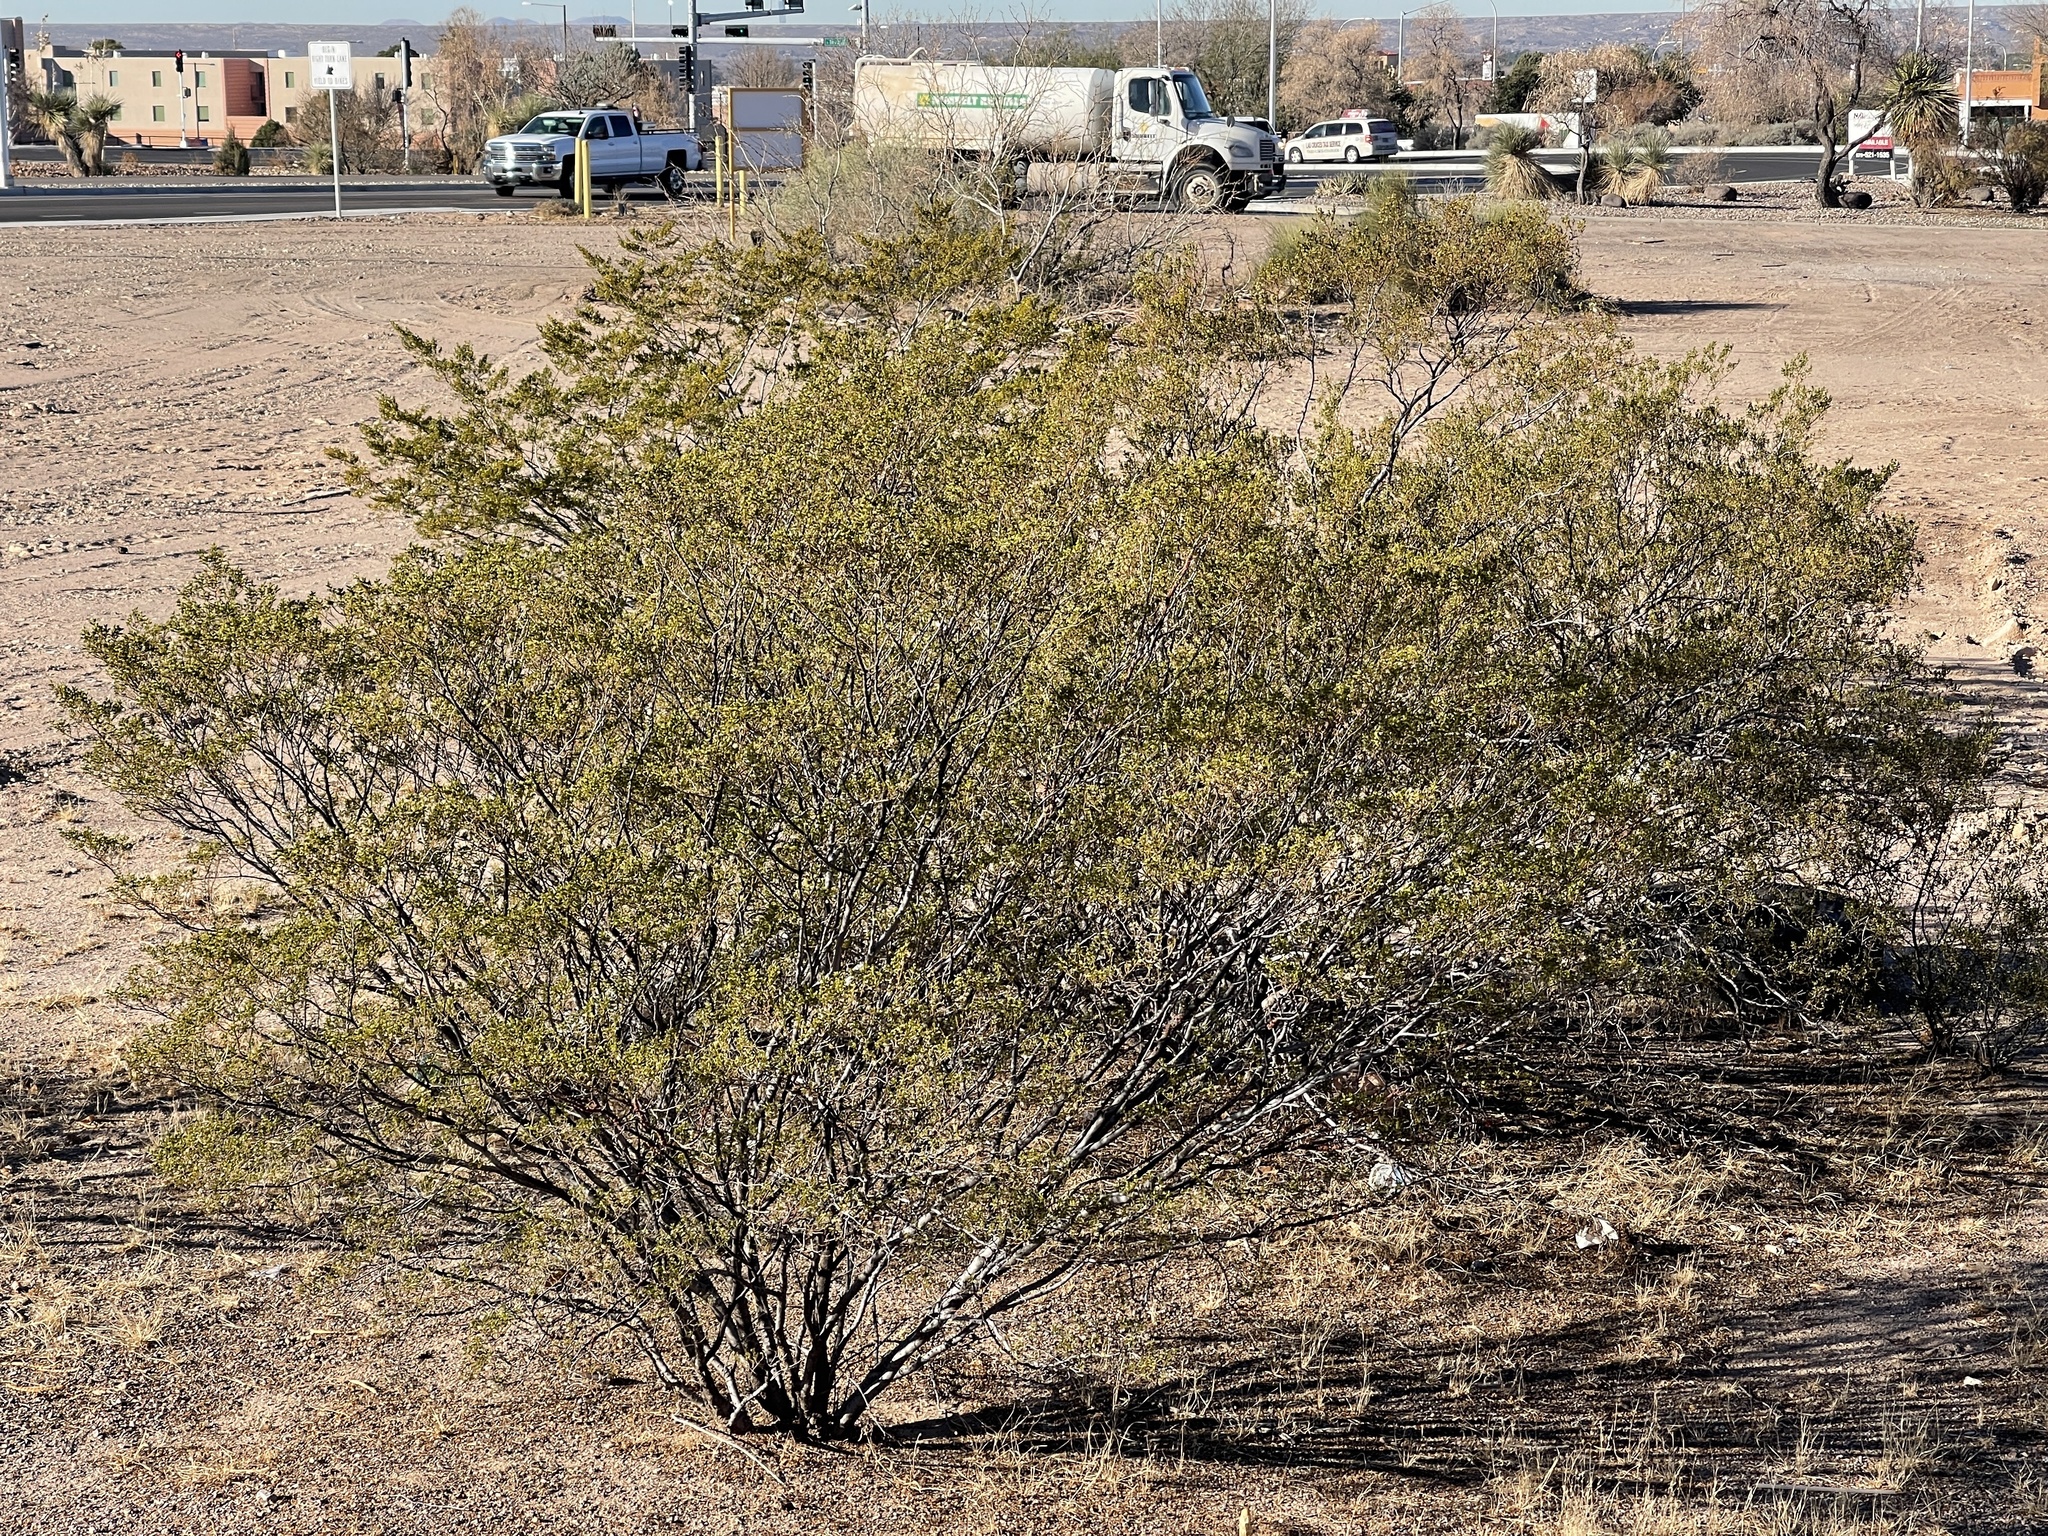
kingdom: Plantae
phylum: Tracheophyta
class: Magnoliopsida
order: Zygophyllales
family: Zygophyllaceae
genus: Larrea
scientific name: Larrea tridentata
